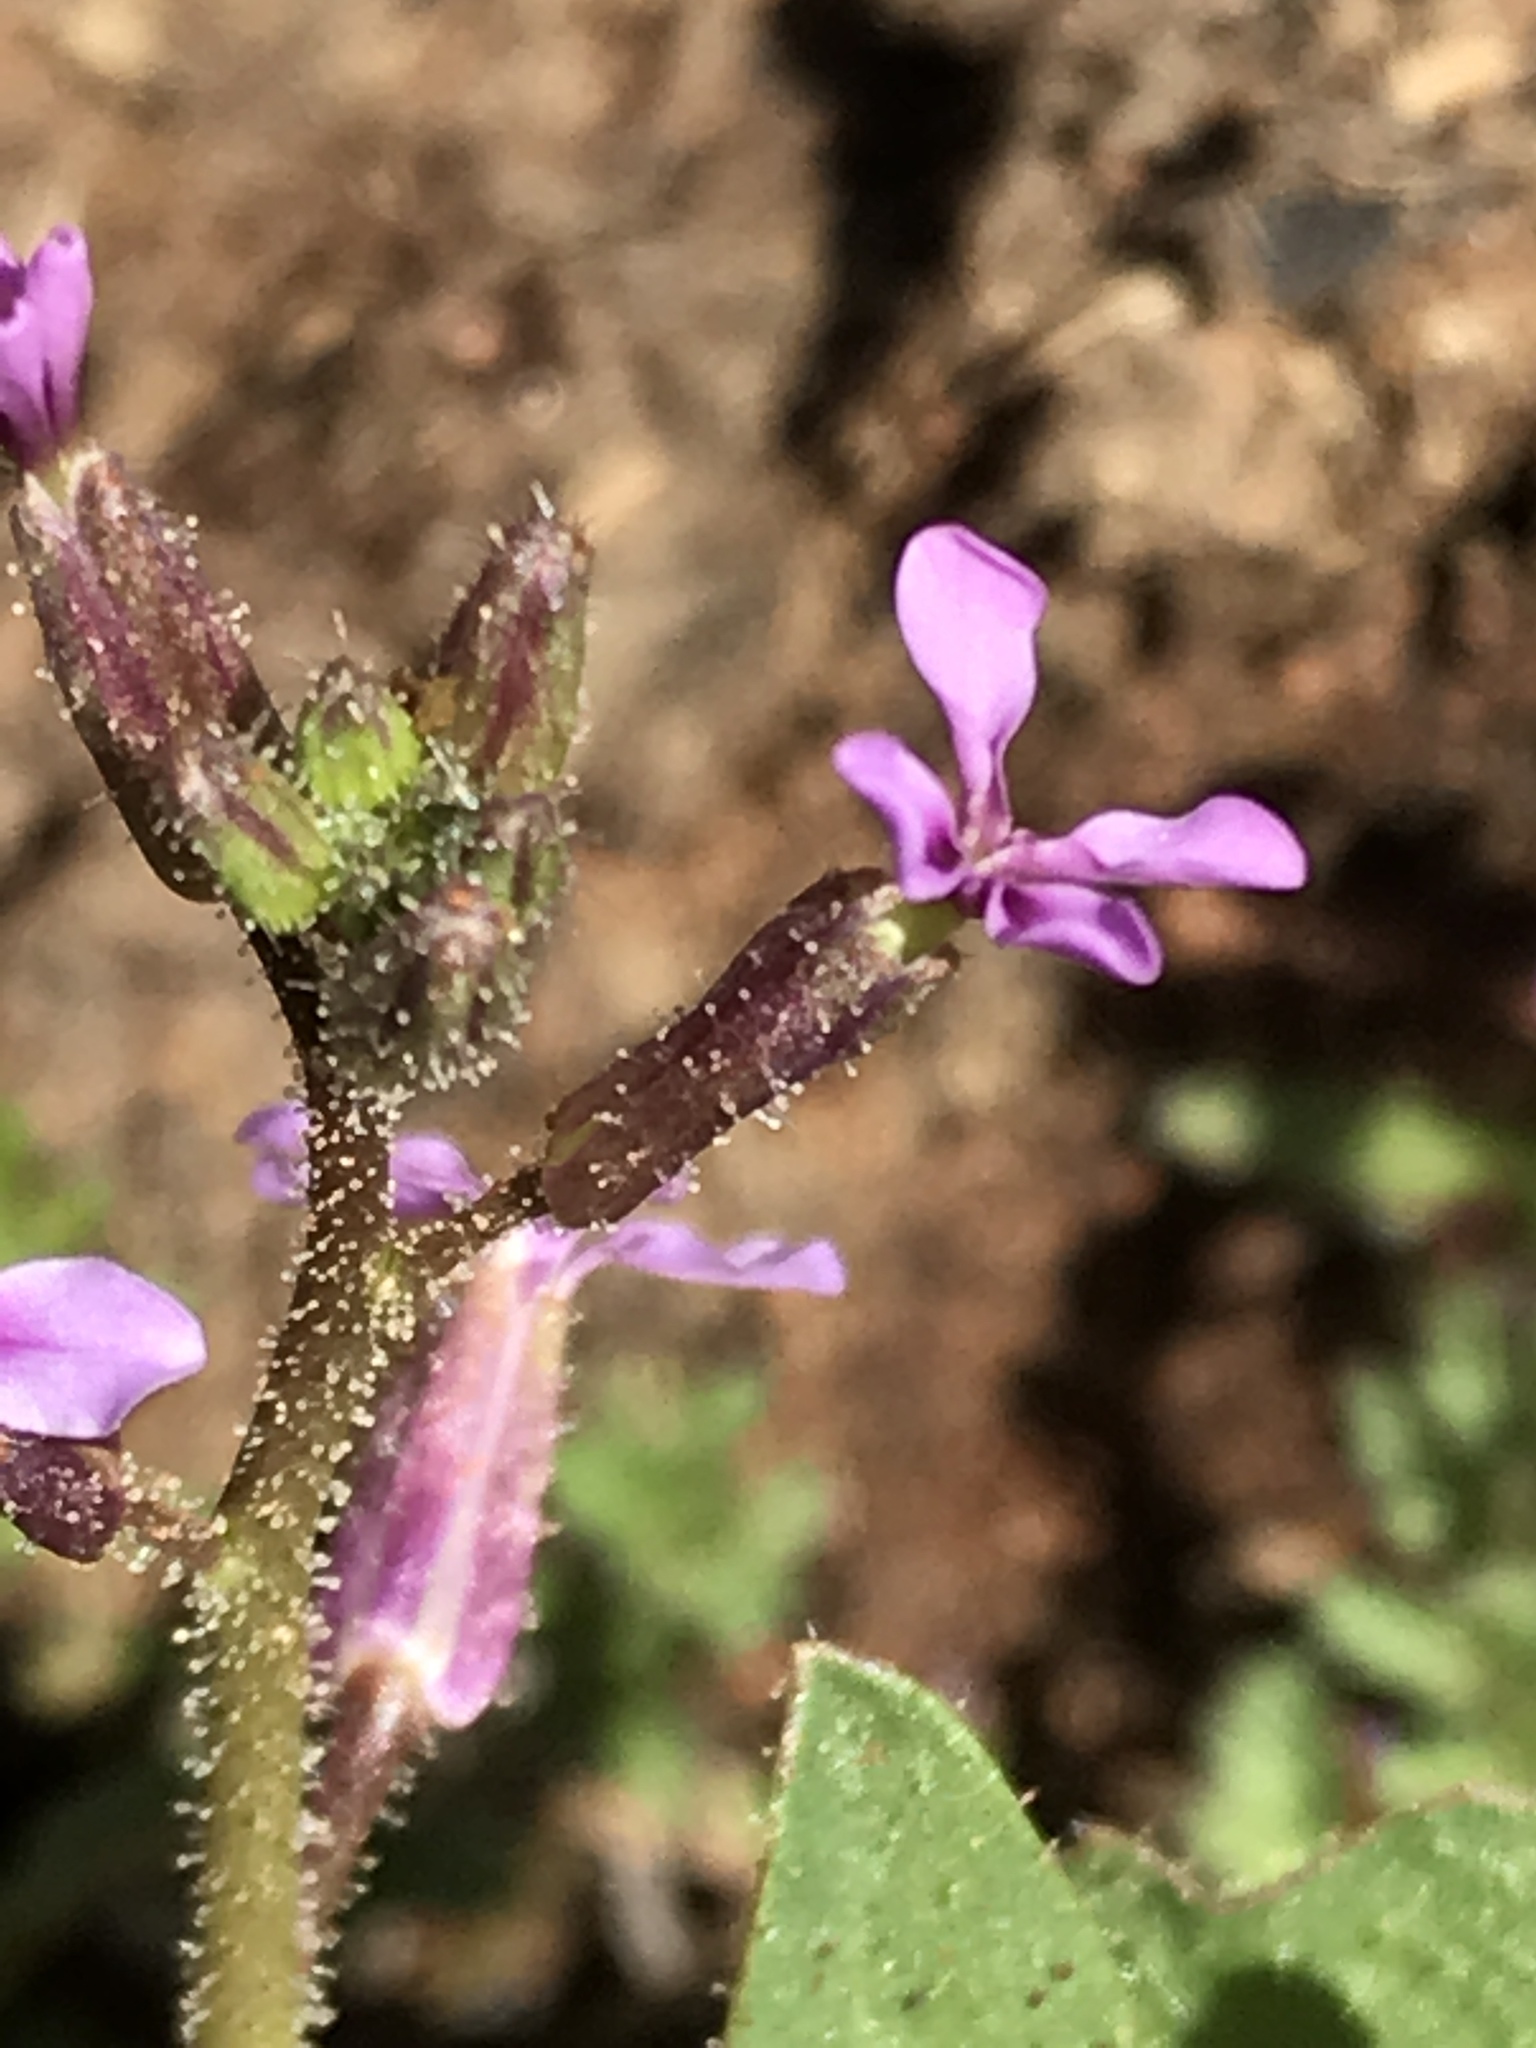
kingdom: Plantae
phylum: Tracheophyta
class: Magnoliopsida
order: Brassicales
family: Brassicaceae
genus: Chorispora
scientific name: Chorispora tenella
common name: Crossflower
